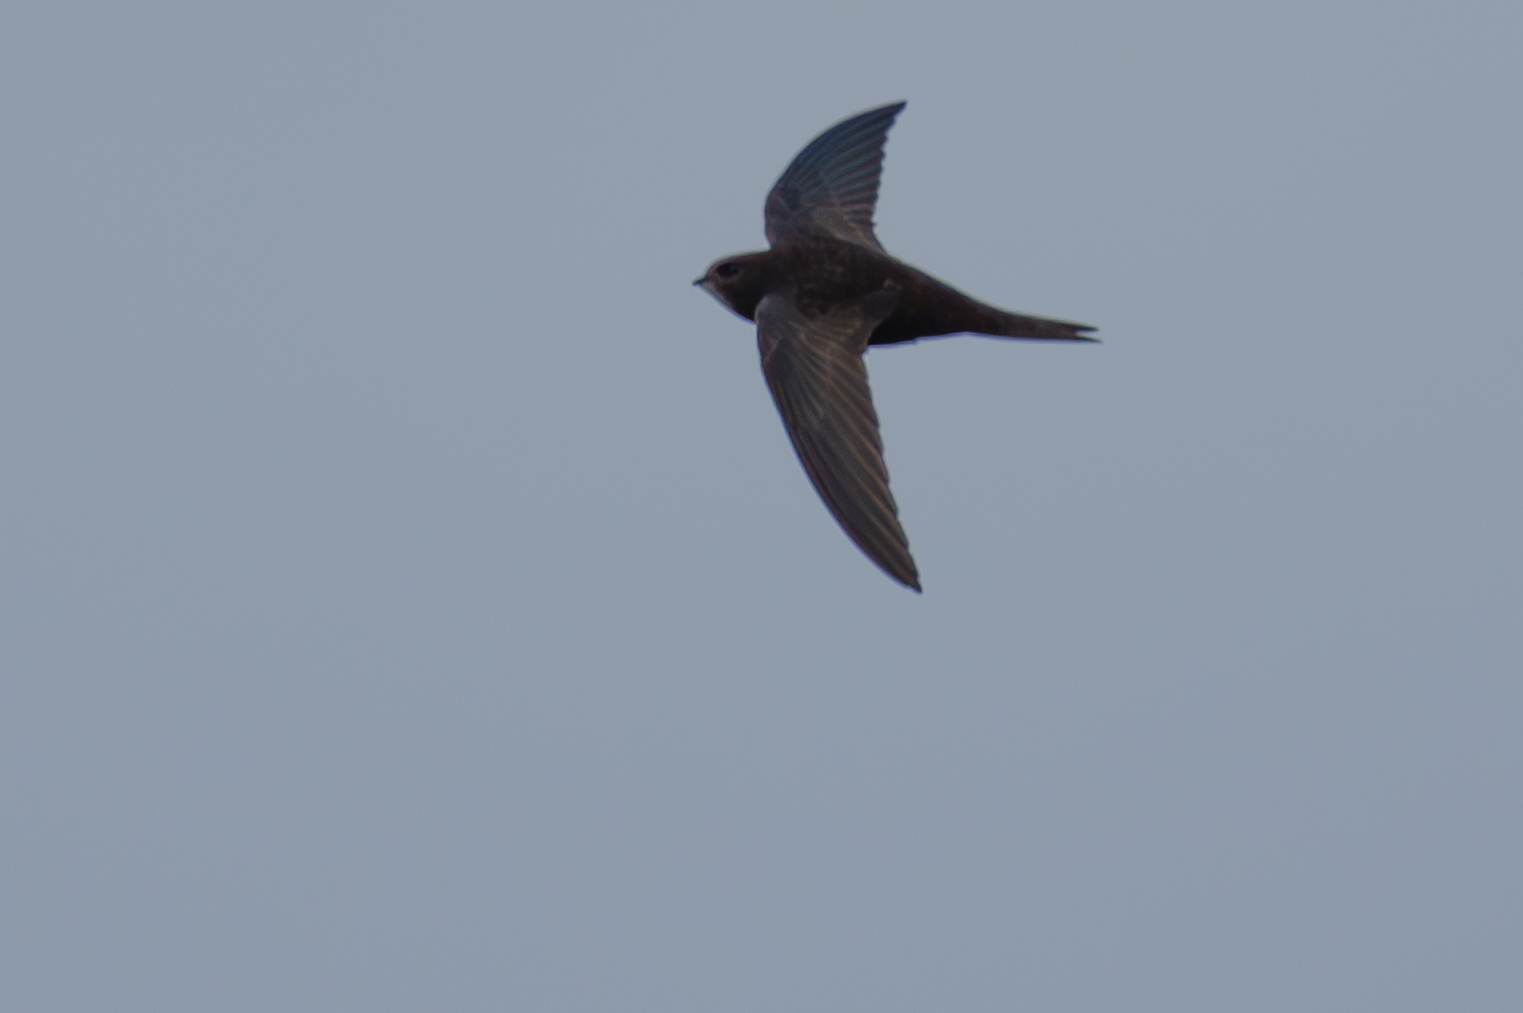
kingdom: Animalia
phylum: Chordata
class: Aves
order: Apodiformes
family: Apodidae
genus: Apus
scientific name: Apus apus
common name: Common swift
